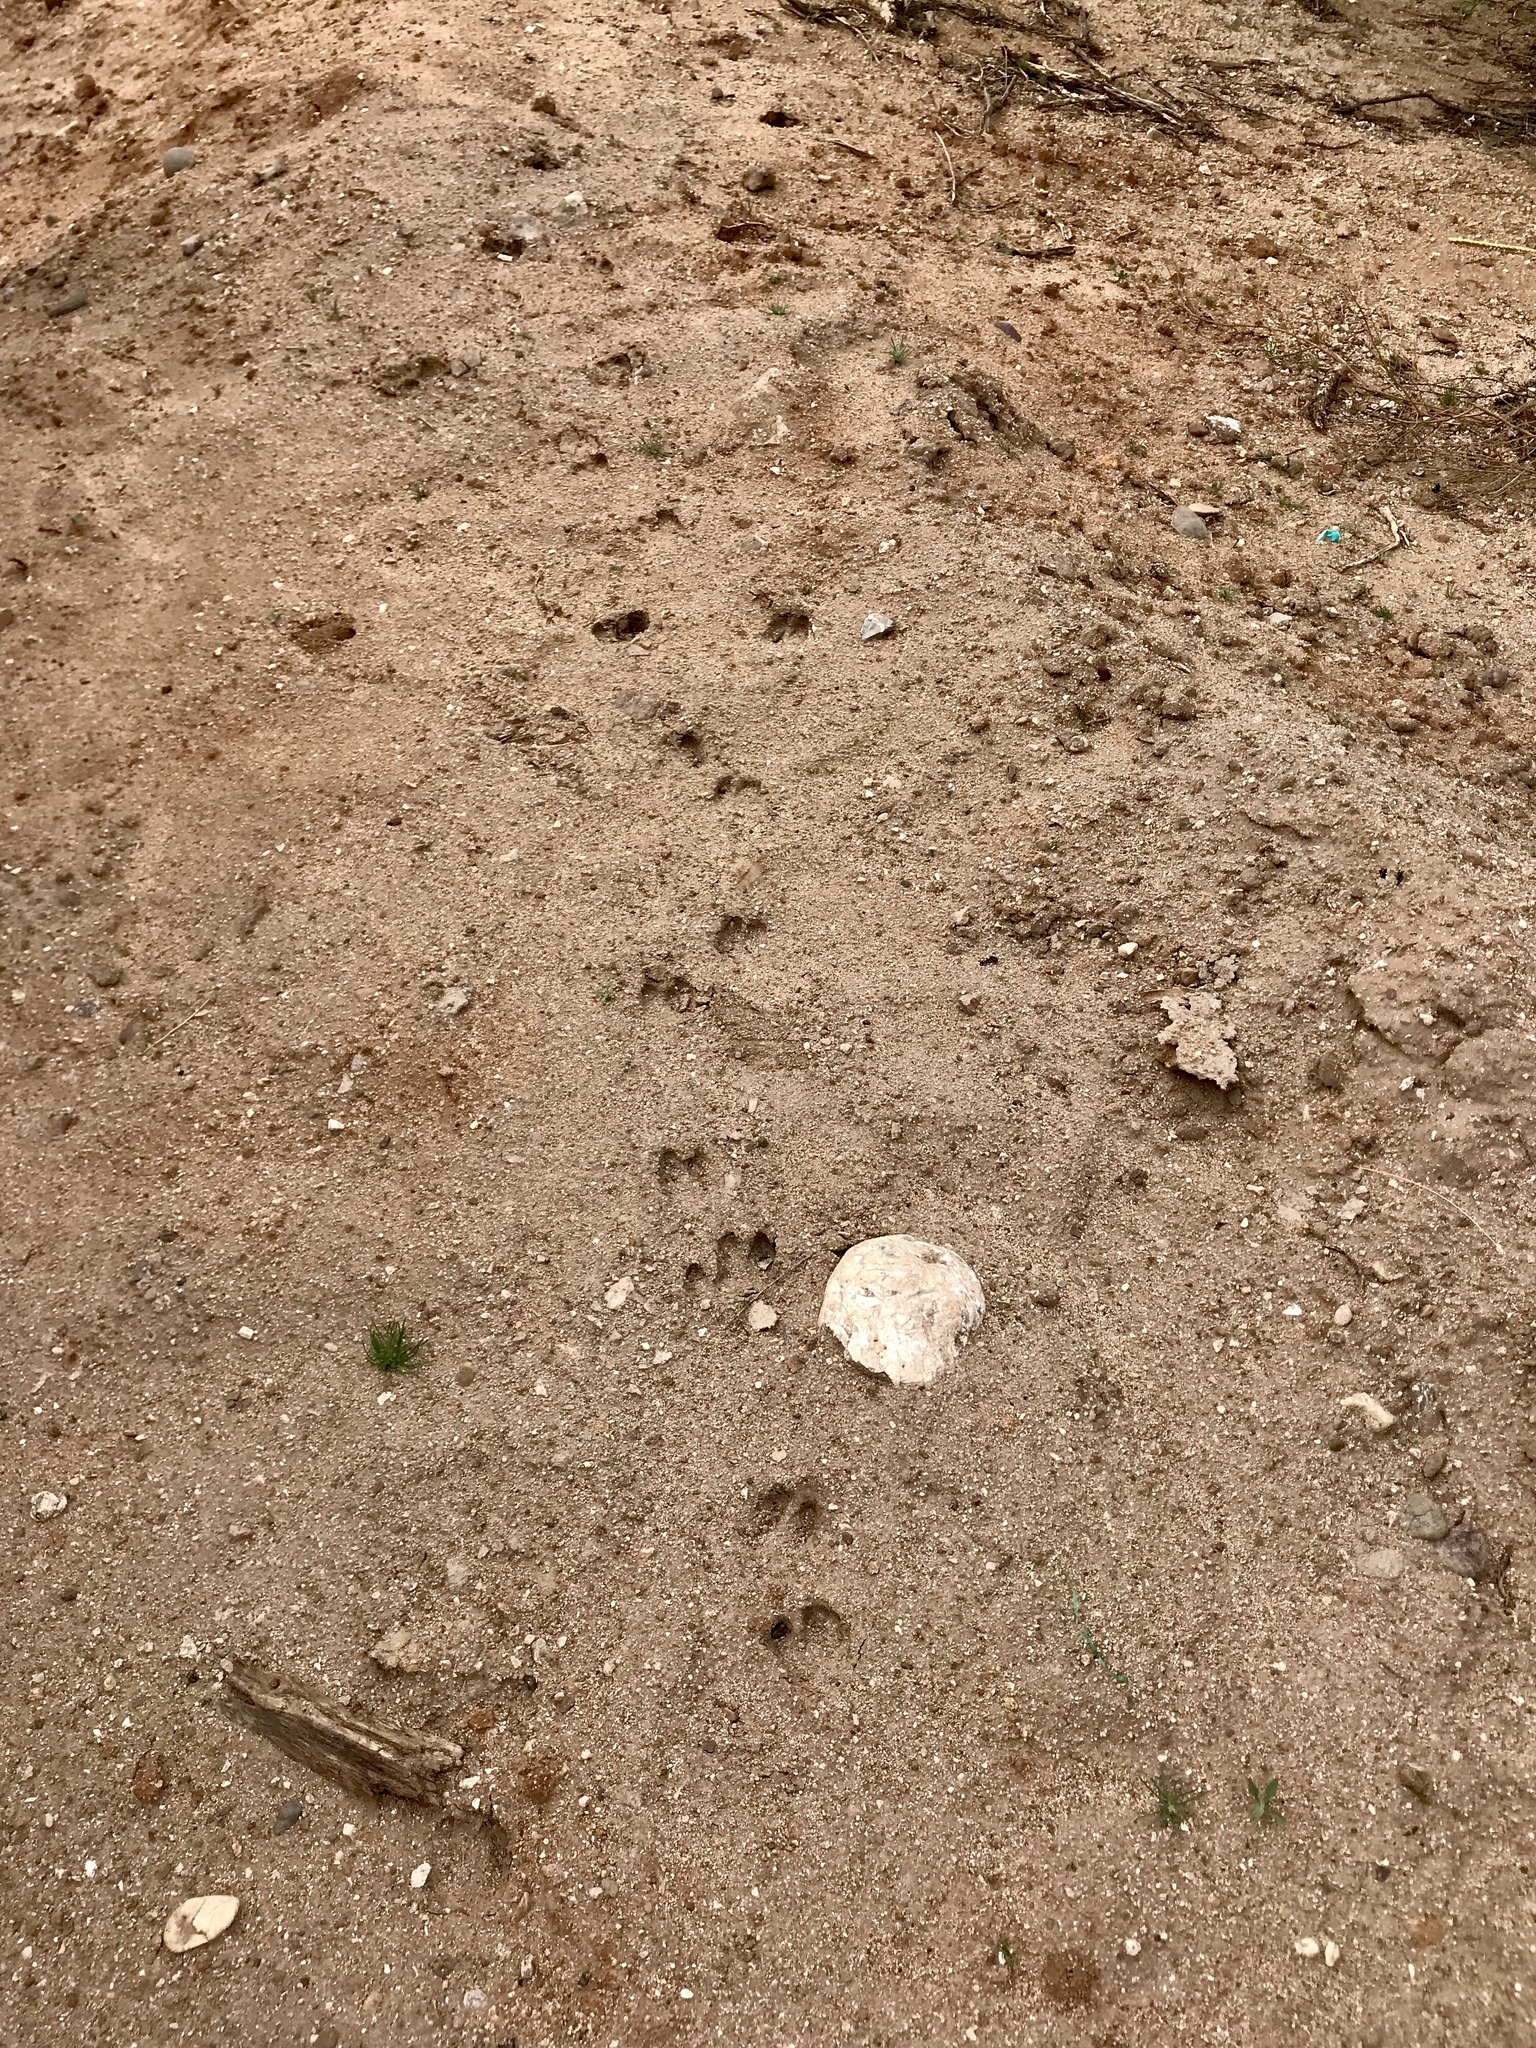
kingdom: Animalia
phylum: Chordata
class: Mammalia
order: Artiodactyla
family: Tayassuidae
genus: Pecari
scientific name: Pecari tajacu
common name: Collared peccary
